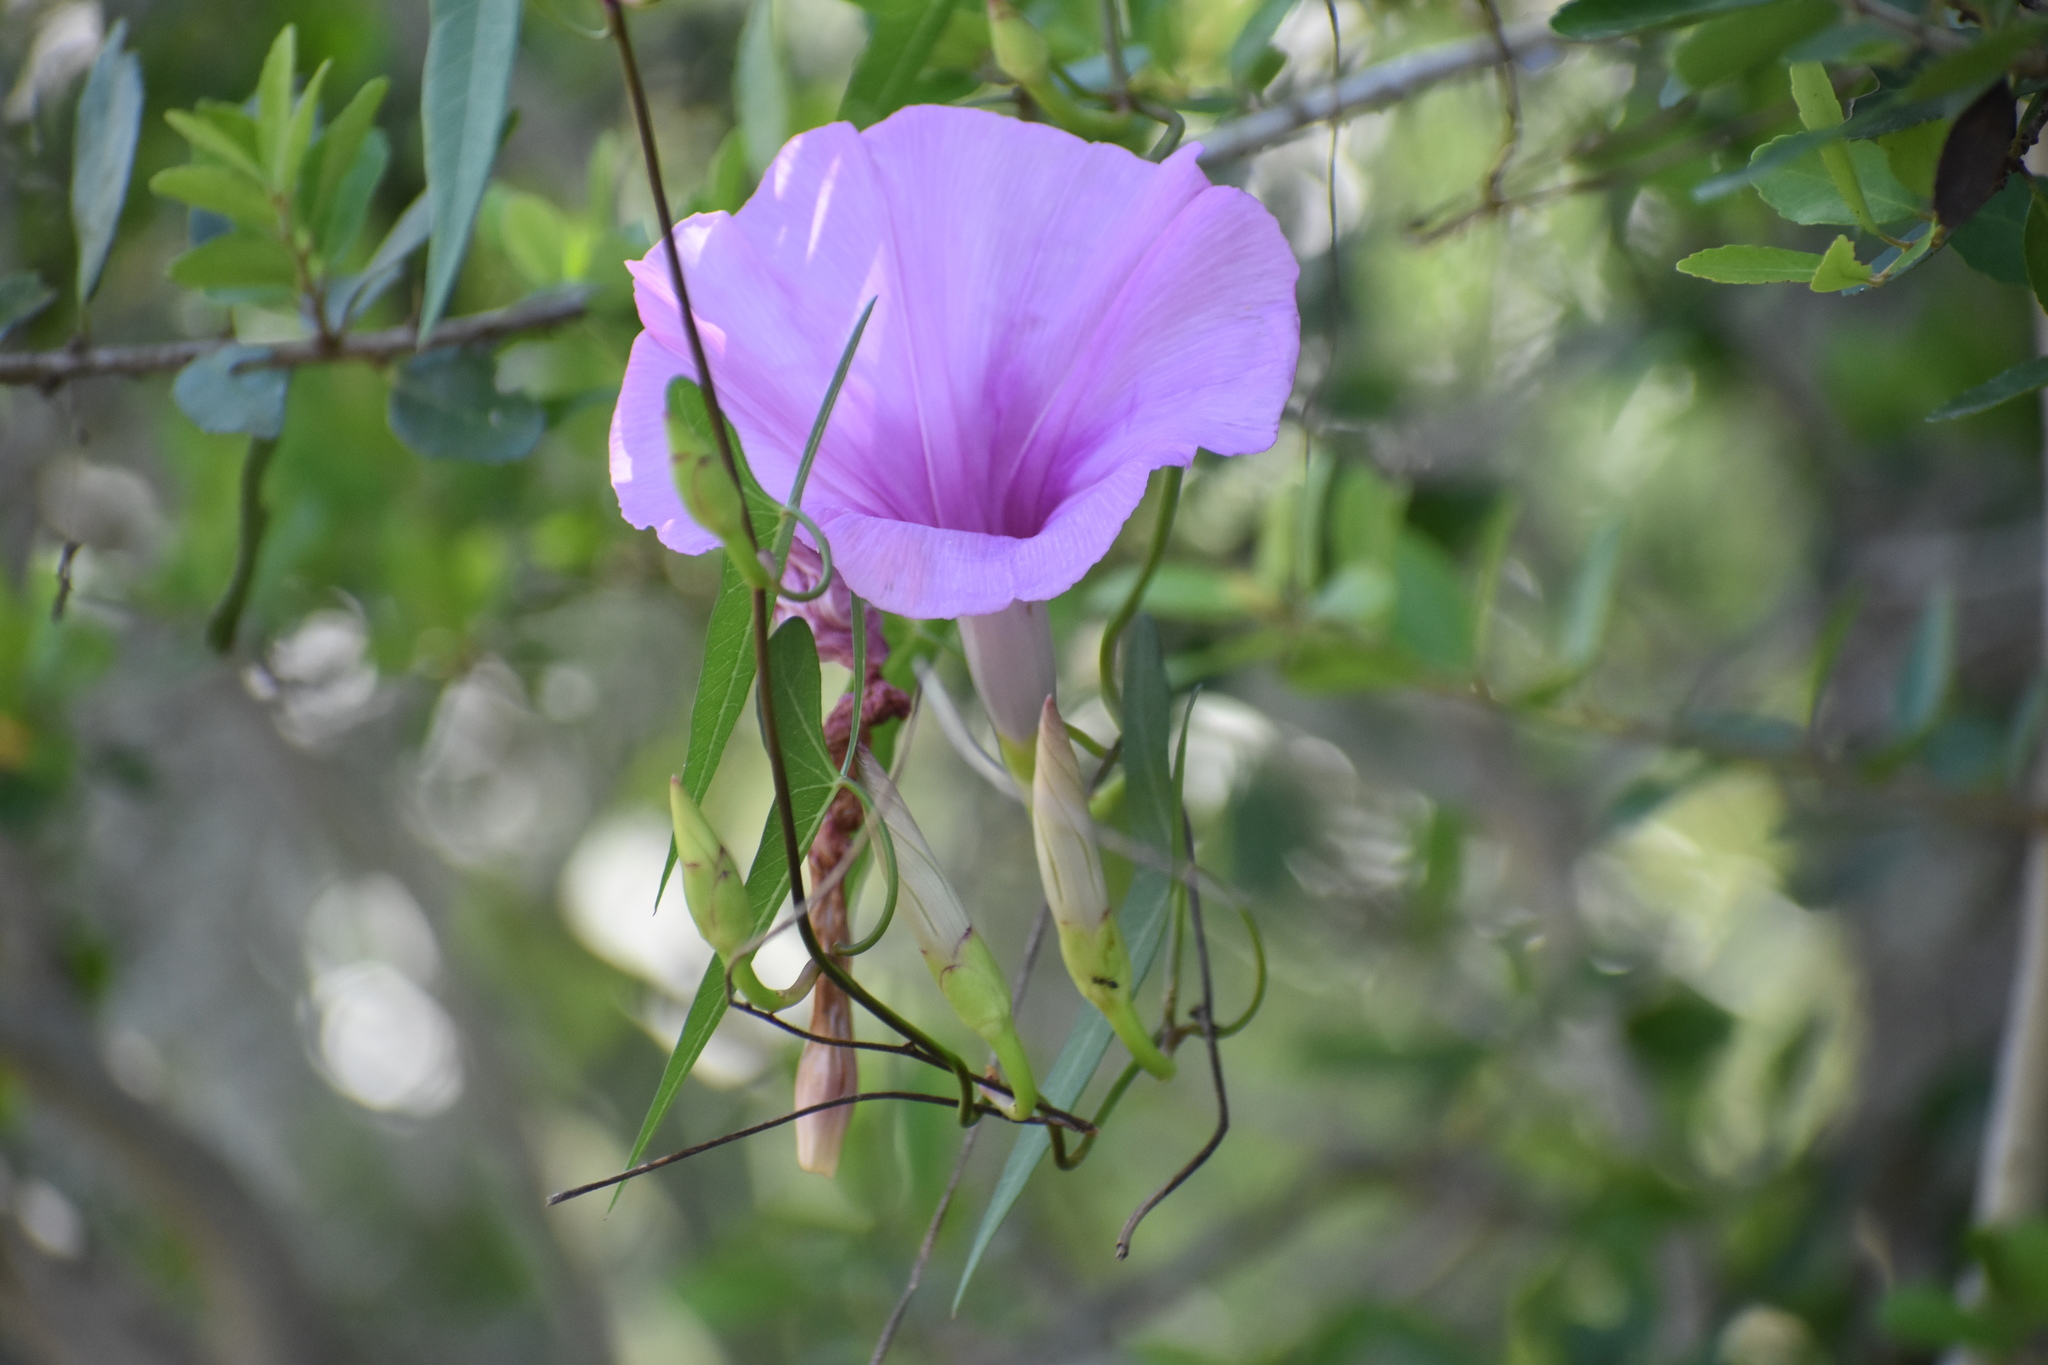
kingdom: Plantae
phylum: Tracheophyta
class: Magnoliopsida
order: Solanales
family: Convolvulaceae
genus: Ipomoea
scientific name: Ipomoea sagittata
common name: Saltmarsh morning glory
